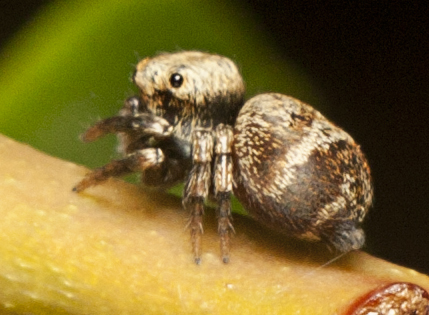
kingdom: Animalia
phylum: Arthropoda
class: Arachnida
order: Araneae
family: Salticidae
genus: Euryattus
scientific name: Euryattus bleekeri
